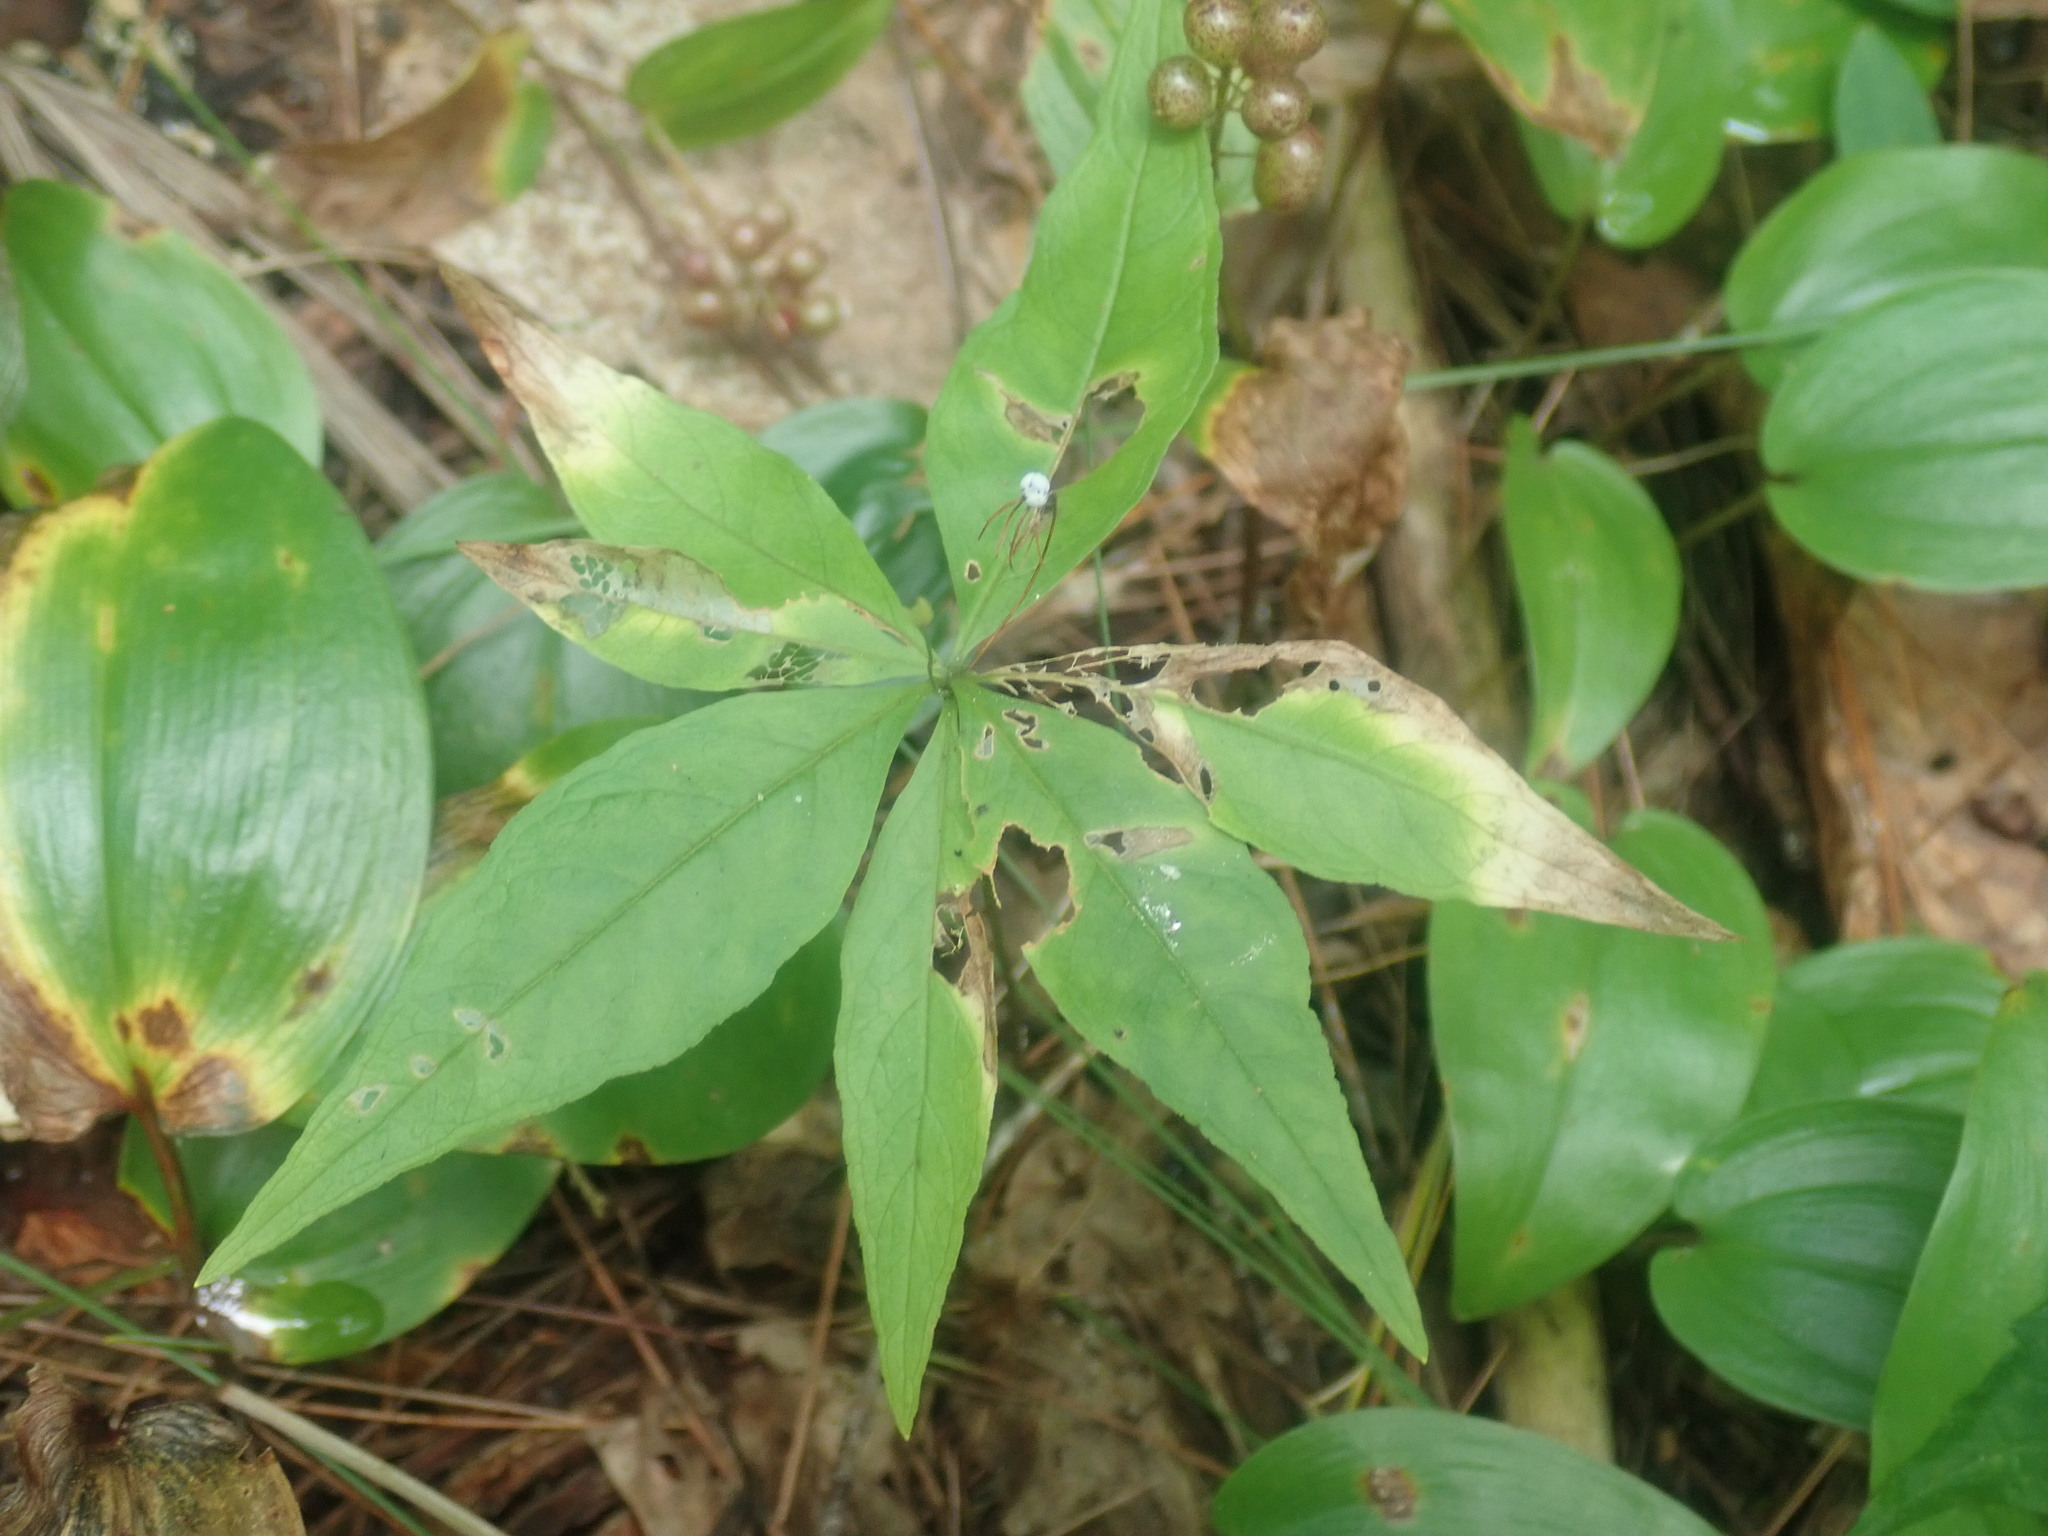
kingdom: Plantae
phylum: Tracheophyta
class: Magnoliopsida
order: Ericales
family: Primulaceae
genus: Lysimachia
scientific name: Lysimachia borealis
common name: American starflower
